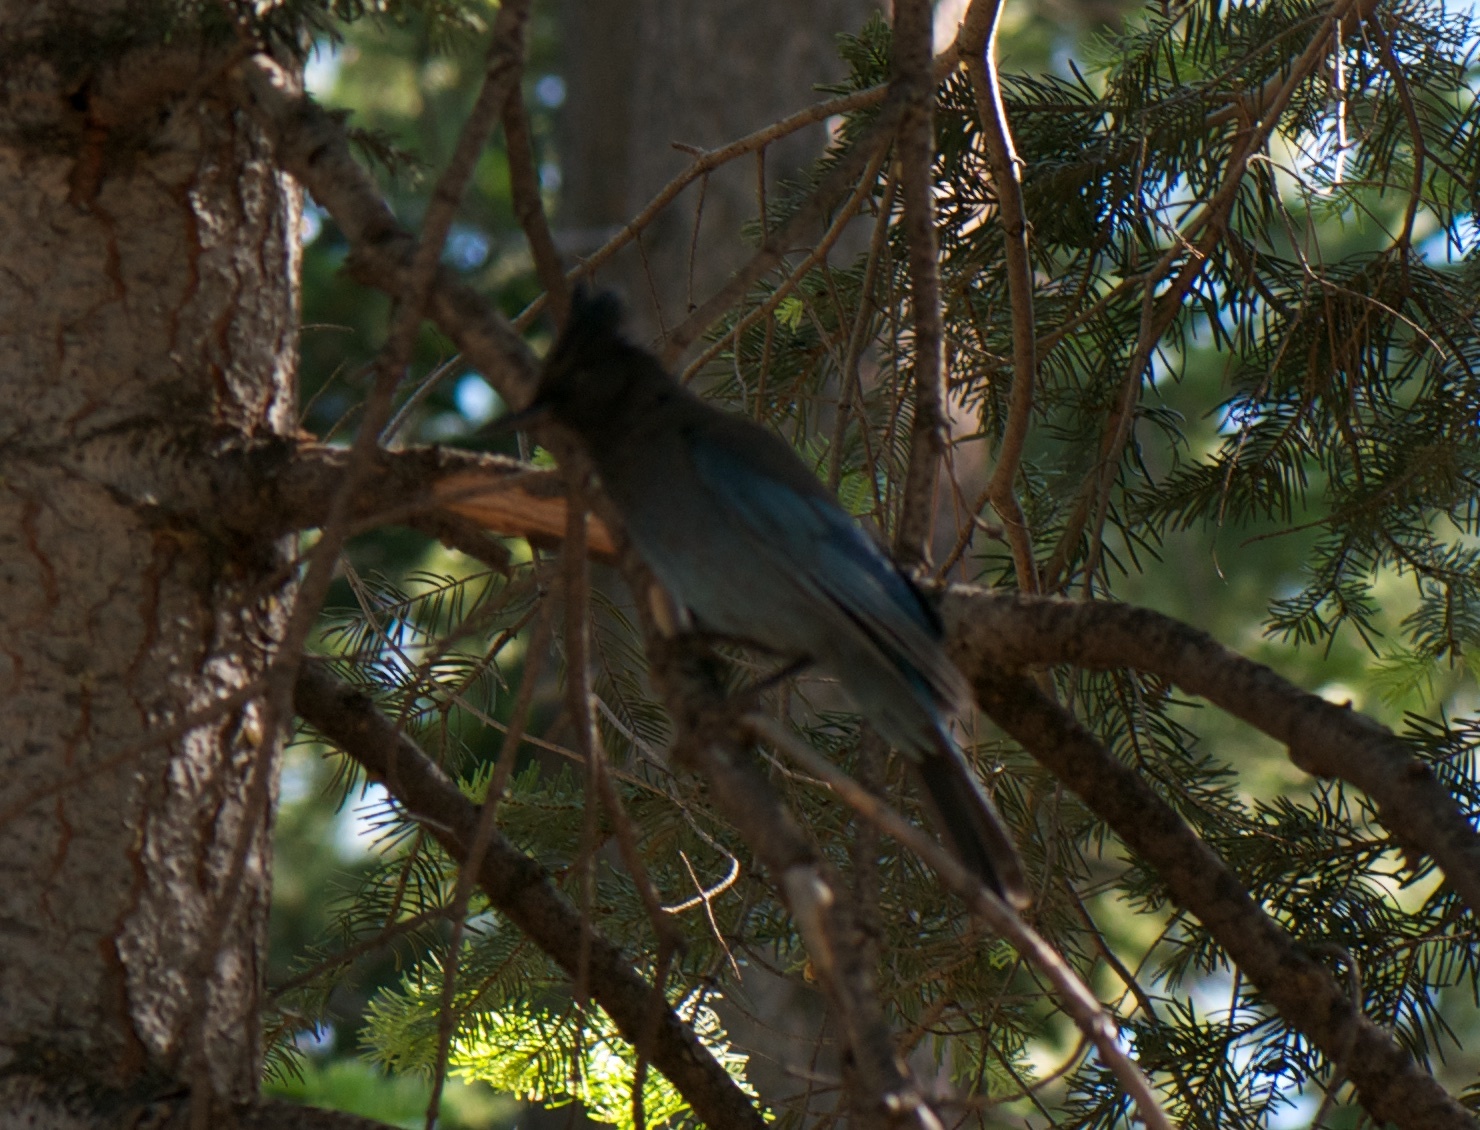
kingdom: Animalia
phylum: Chordata
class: Aves
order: Passeriformes
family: Corvidae
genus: Cyanocitta
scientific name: Cyanocitta stelleri
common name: Steller's jay
